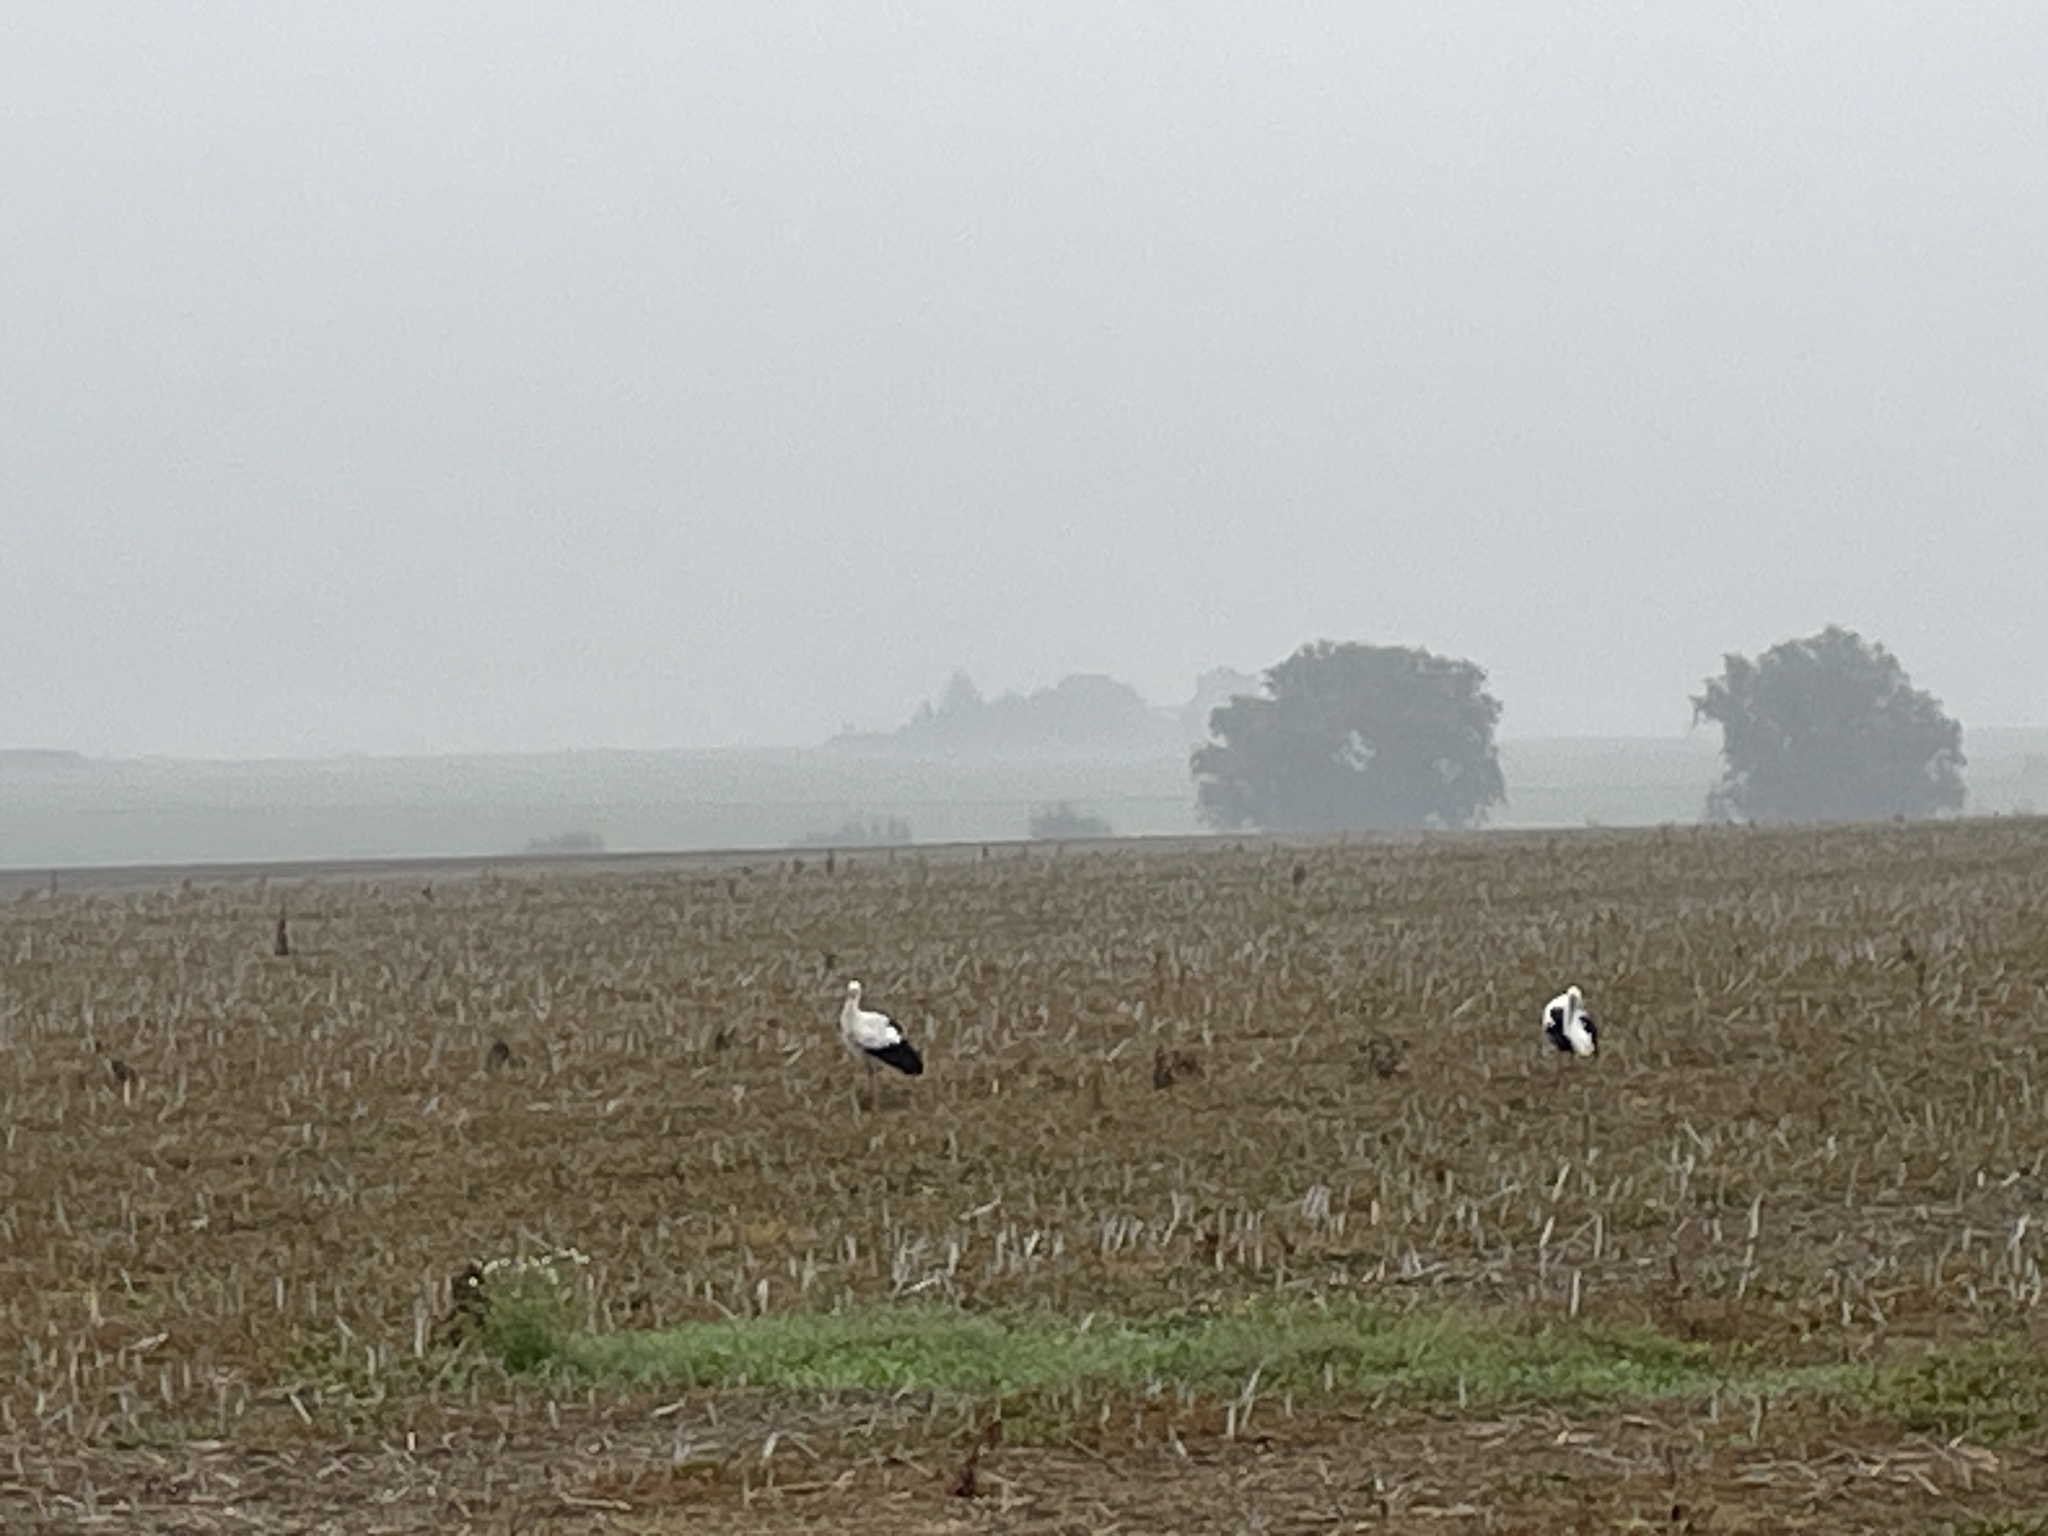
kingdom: Animalia
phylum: Chordata
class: Aves
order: Ciconiiformes
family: Ciconiidae
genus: Ciconia
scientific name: Ciconia ciconia
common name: White stork
